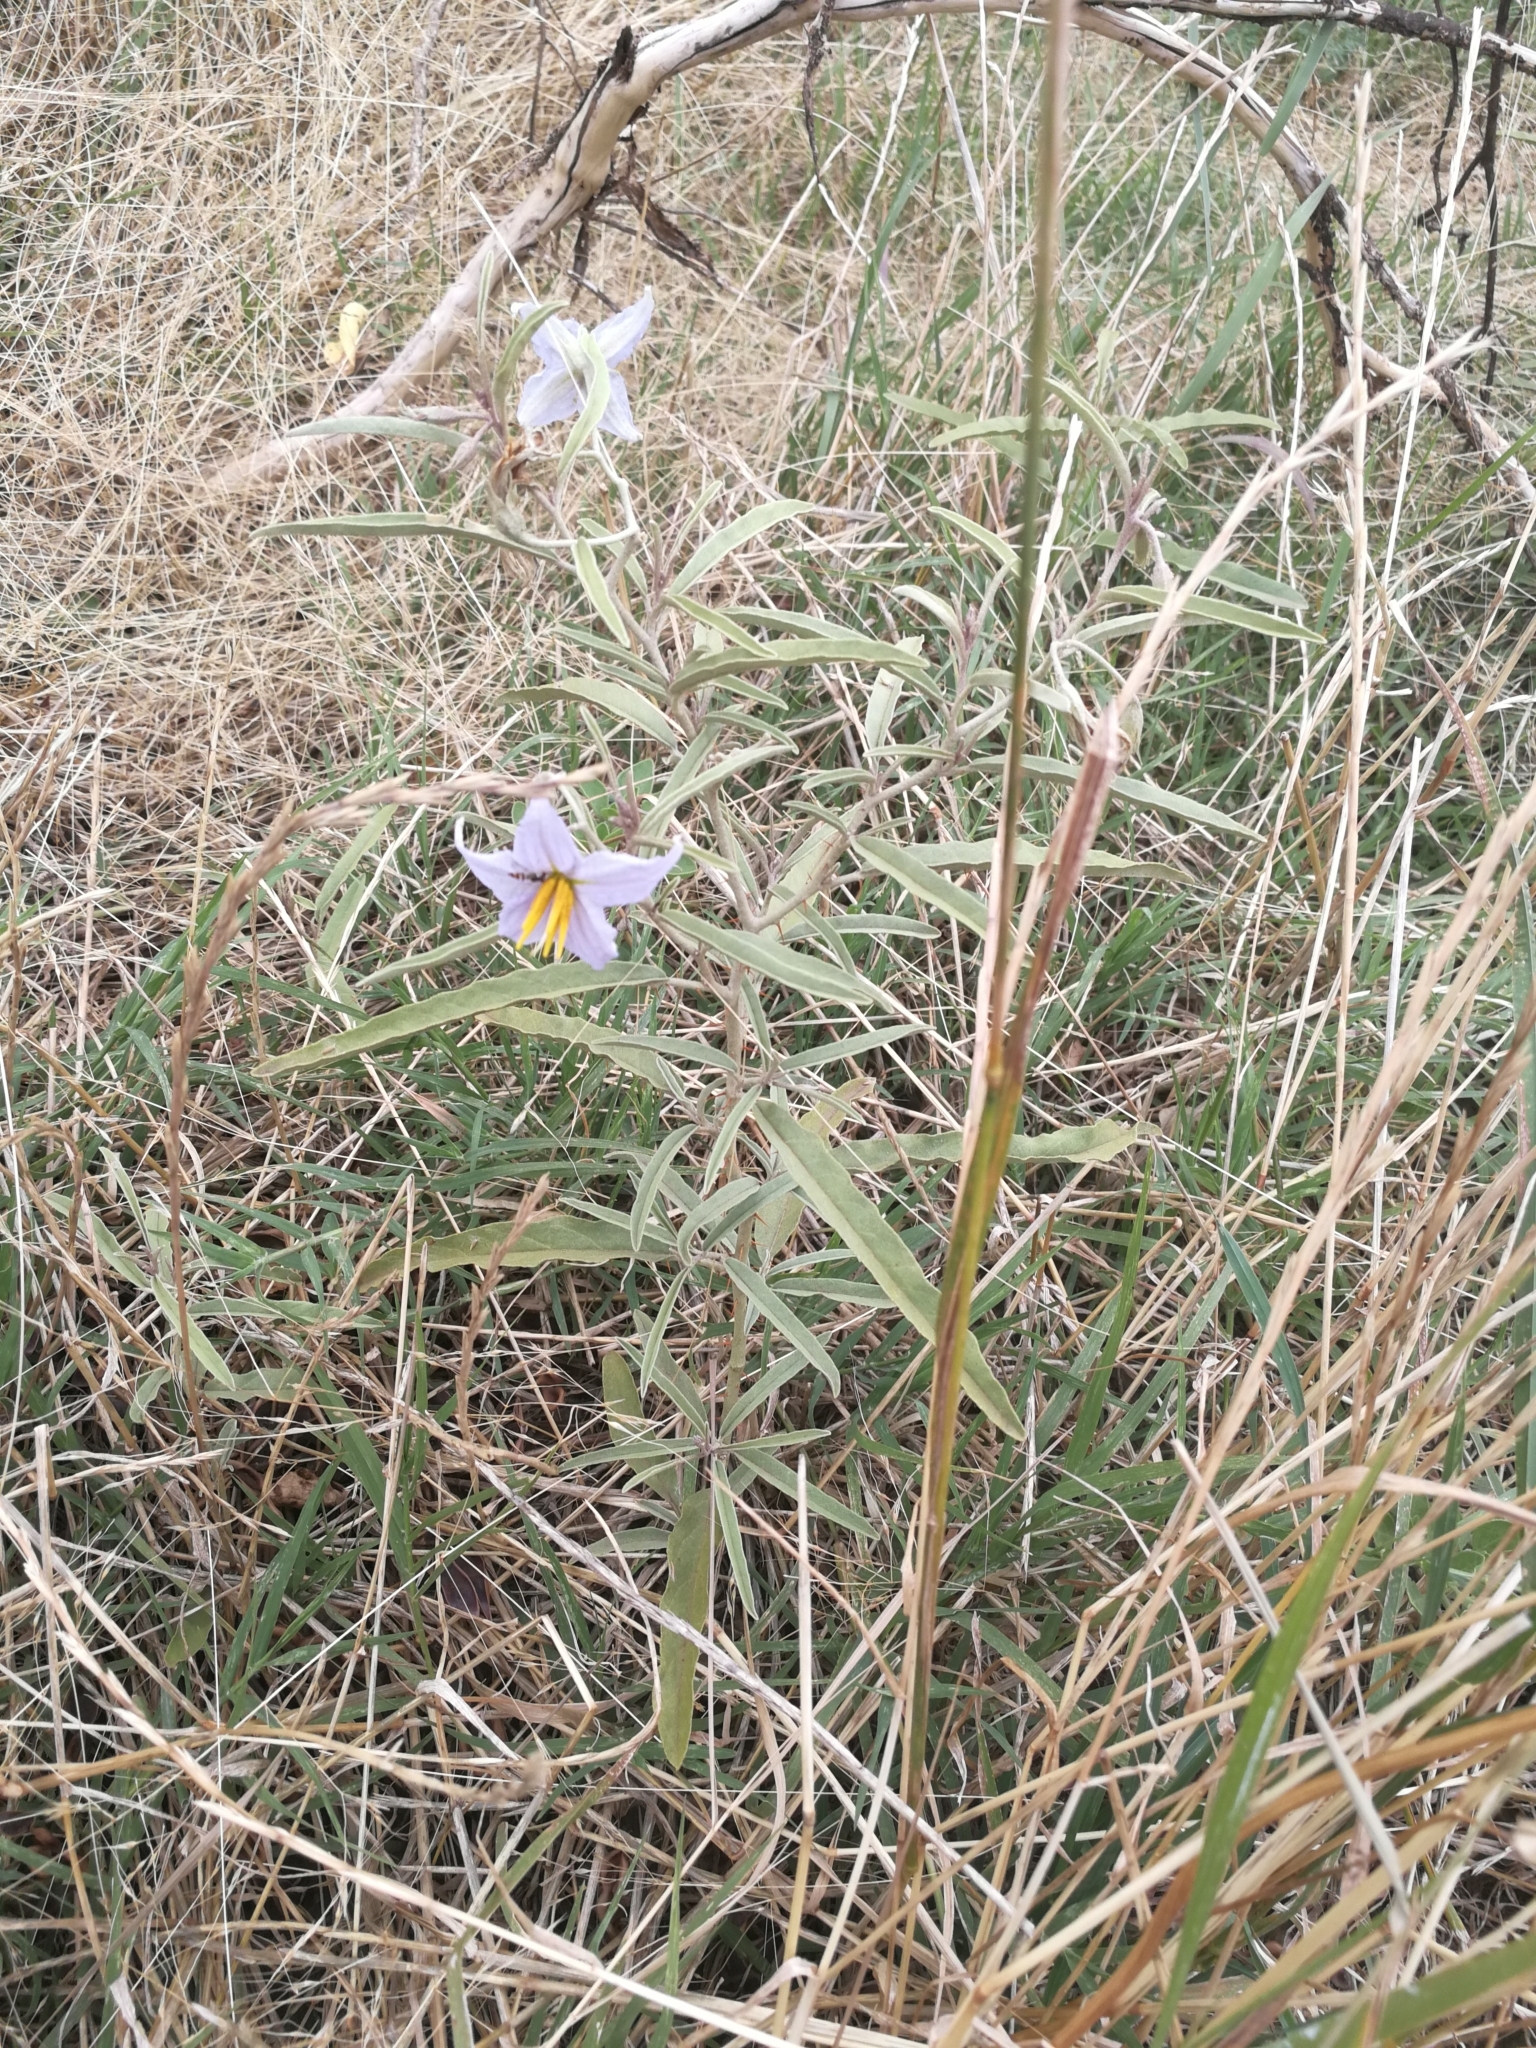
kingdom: Plantae
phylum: Tracheophyta
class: Magnoliopsida
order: Solanales
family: Solanaceae
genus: Solanum
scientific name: Solanum elaeagnifolium
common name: Silverleaf nightshade
